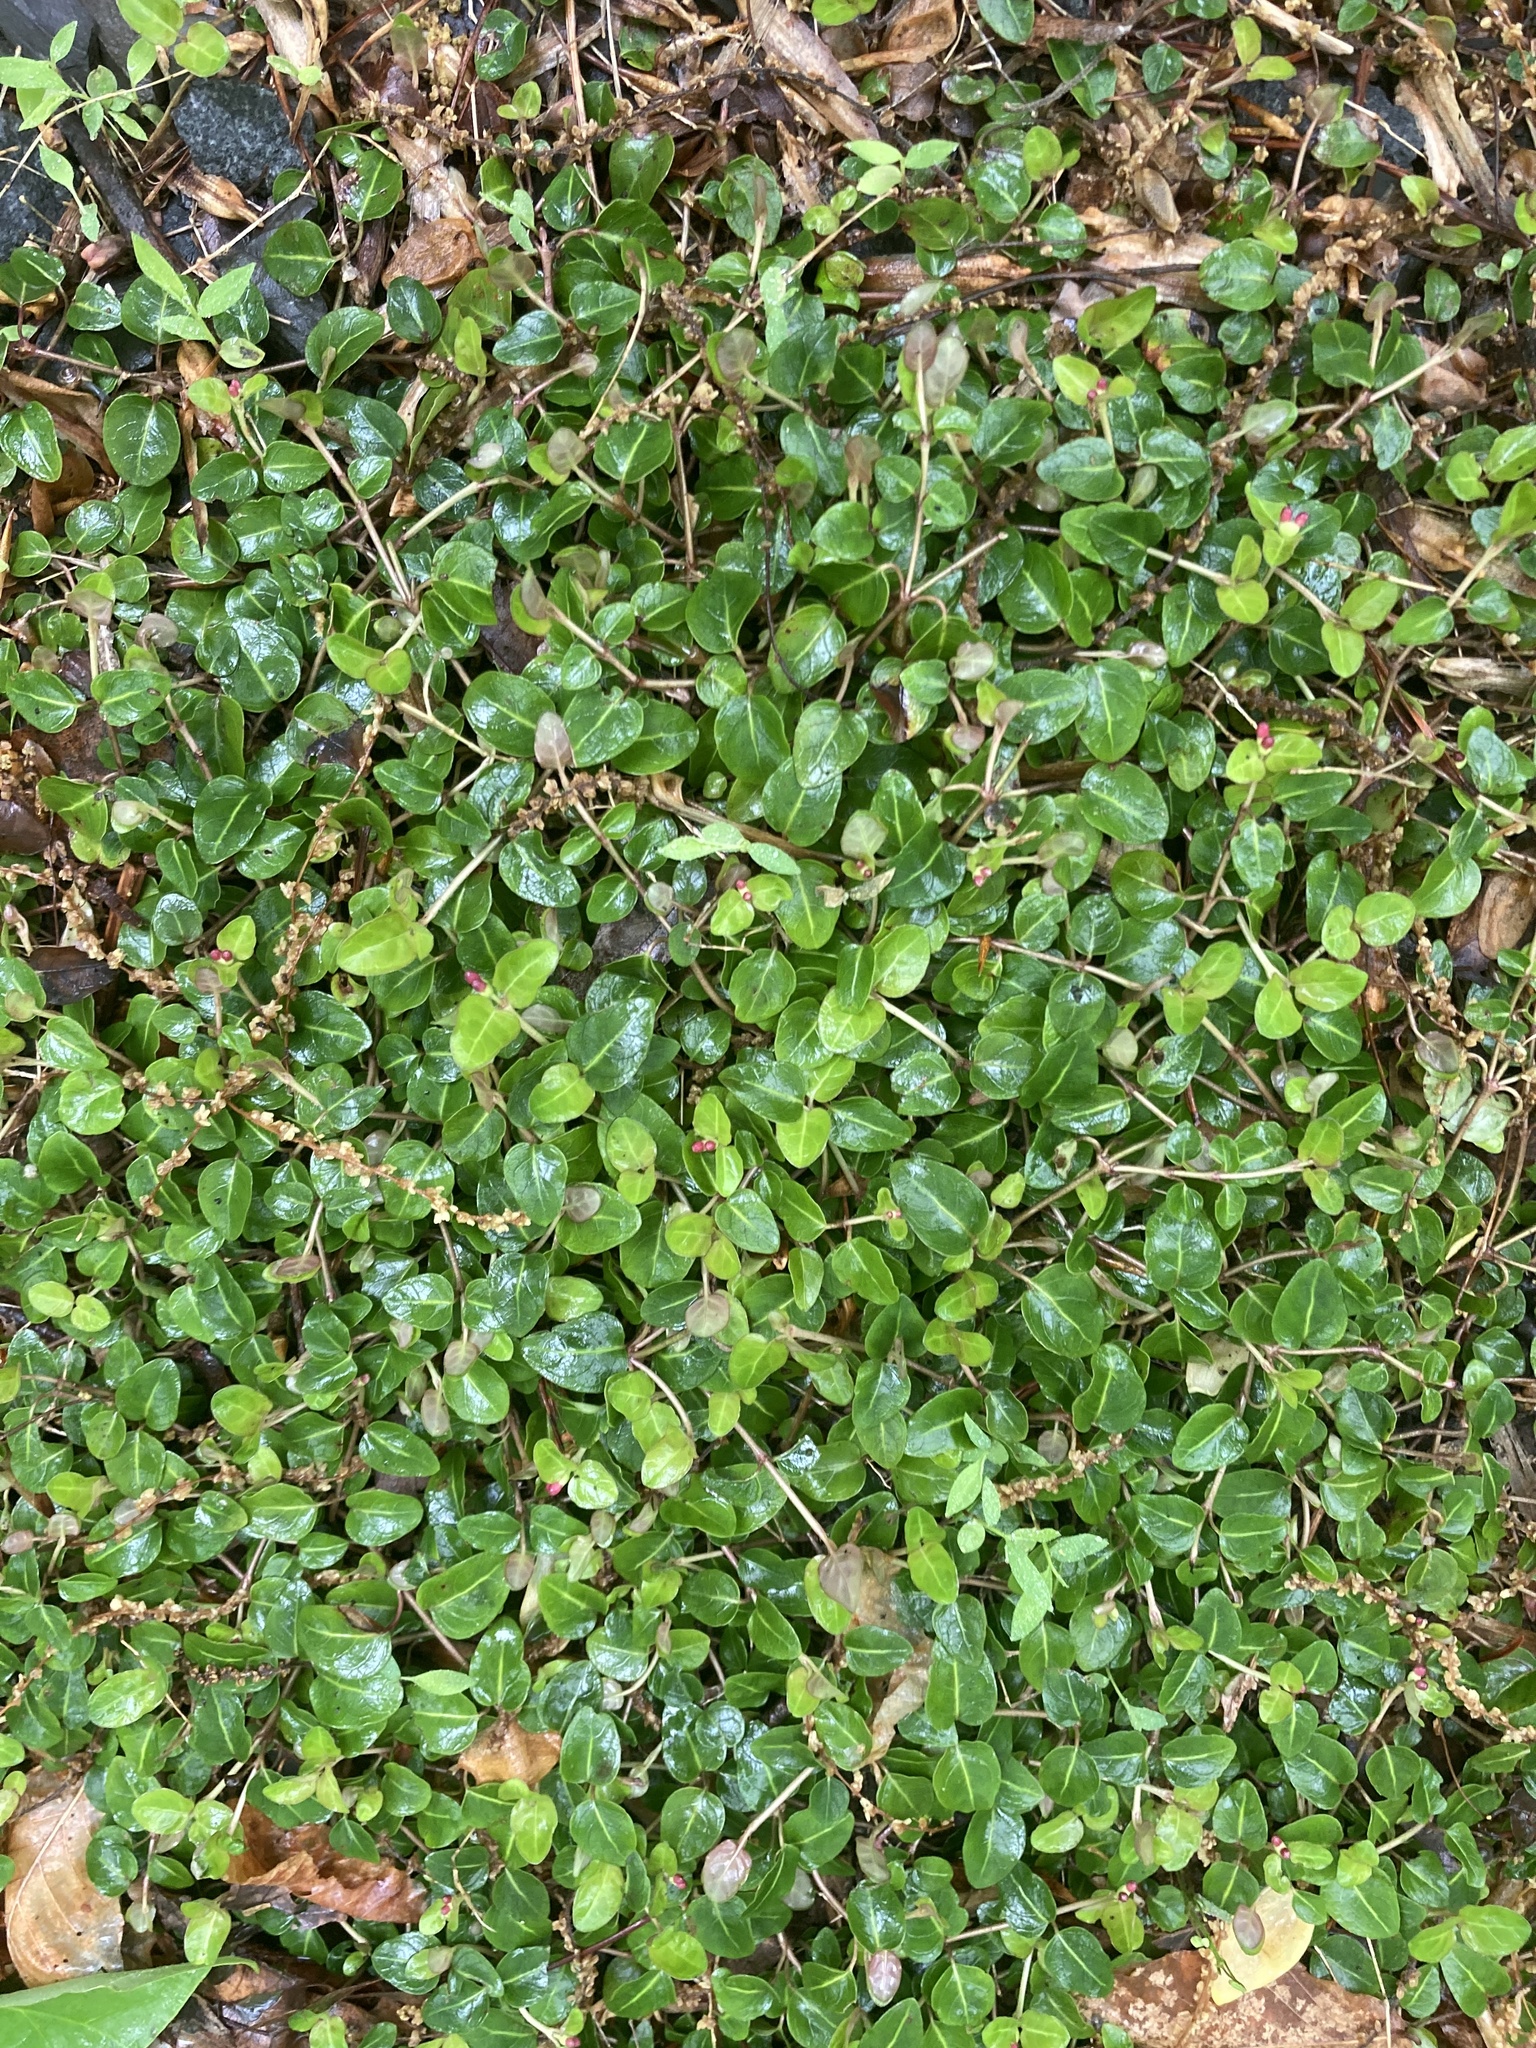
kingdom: Plantae
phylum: Tracheophyta
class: Magnoliopsida
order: Gentianales
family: Rubiaceae
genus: Mitchella
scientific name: Mitchella repens
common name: Partridge-berry
